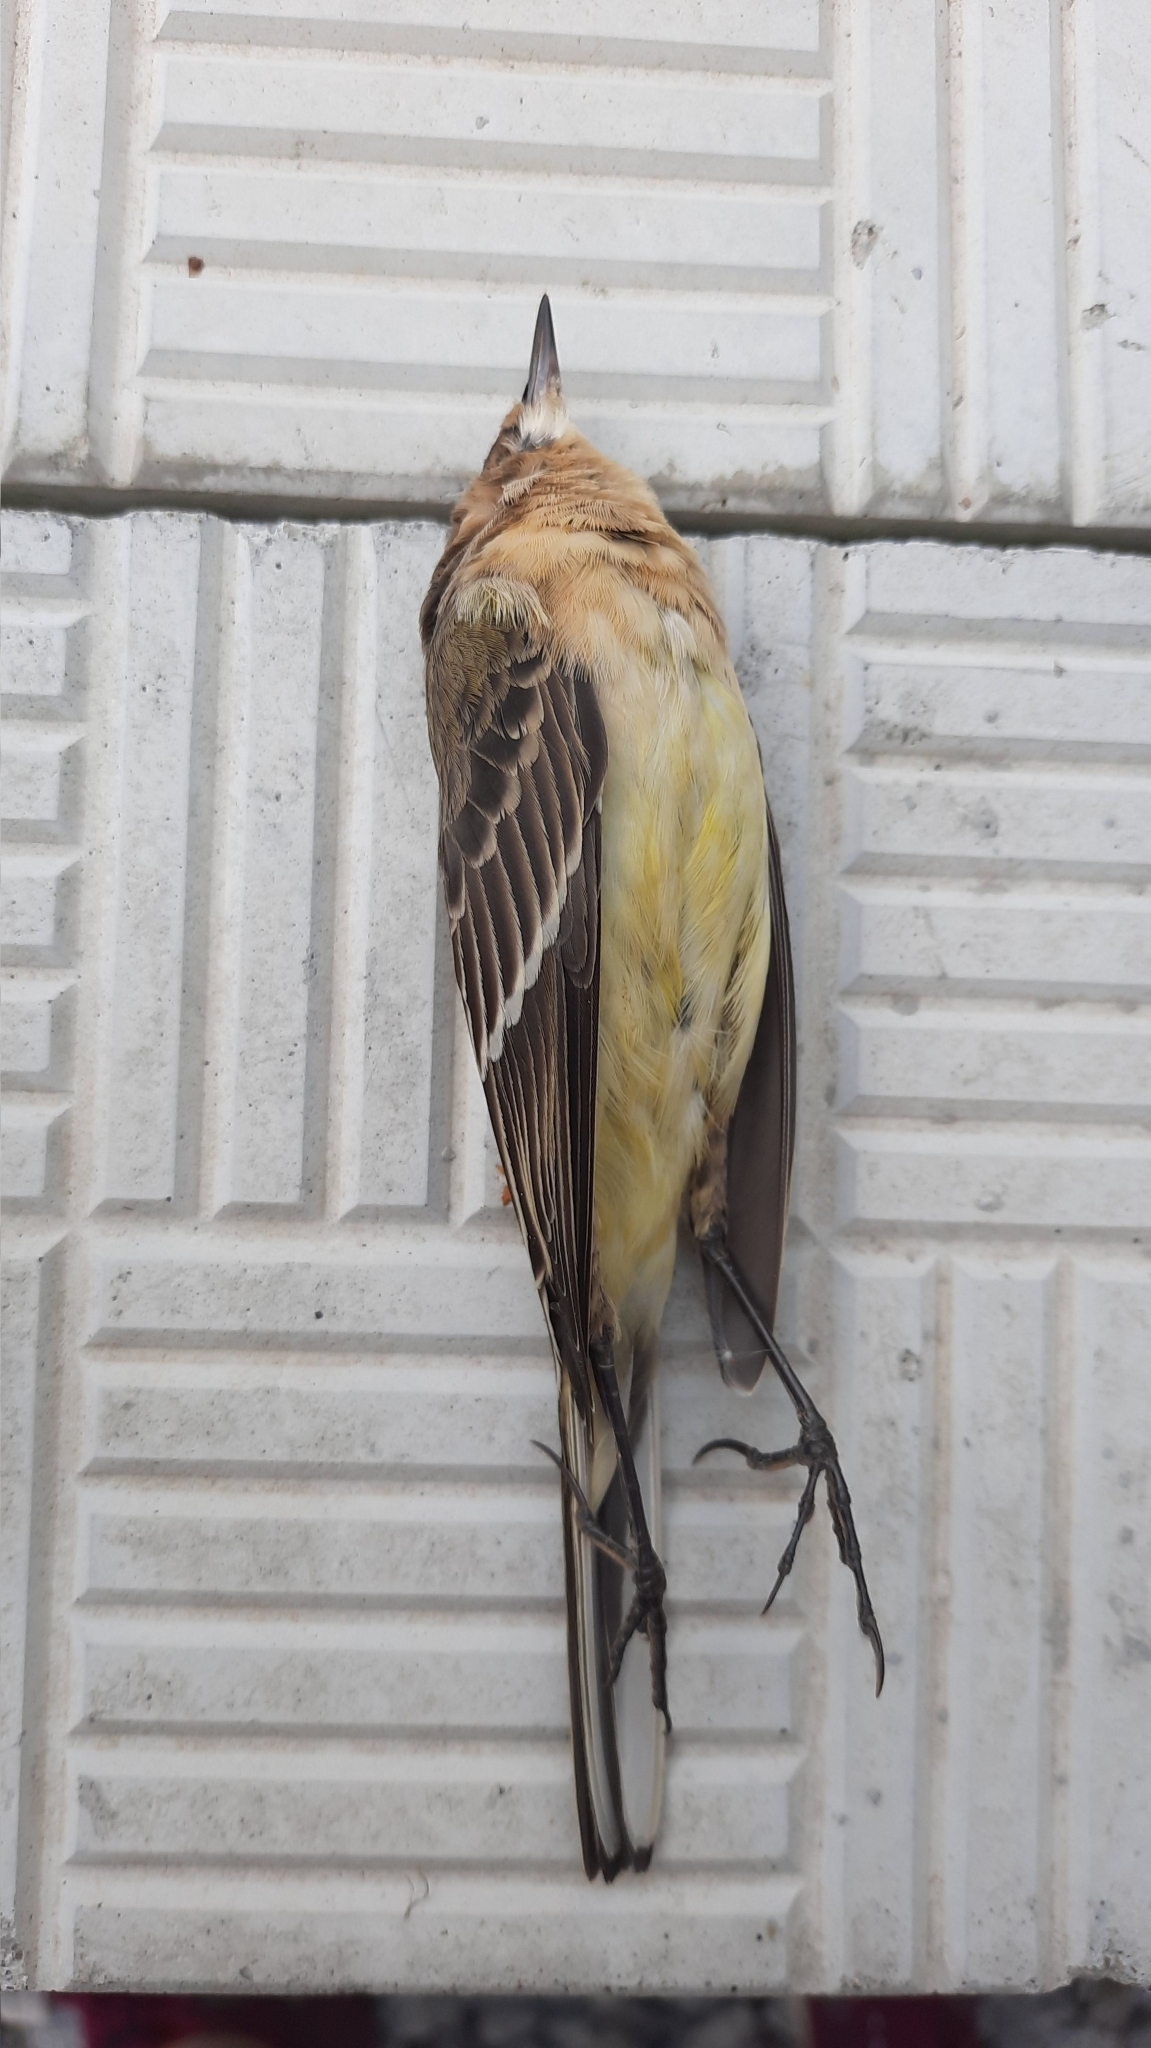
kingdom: Animalia
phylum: Chordata
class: Aves
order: Passeriformes
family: Motacillidae
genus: Motacilla
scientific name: Motacilla flava
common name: Western yellow wagtail
